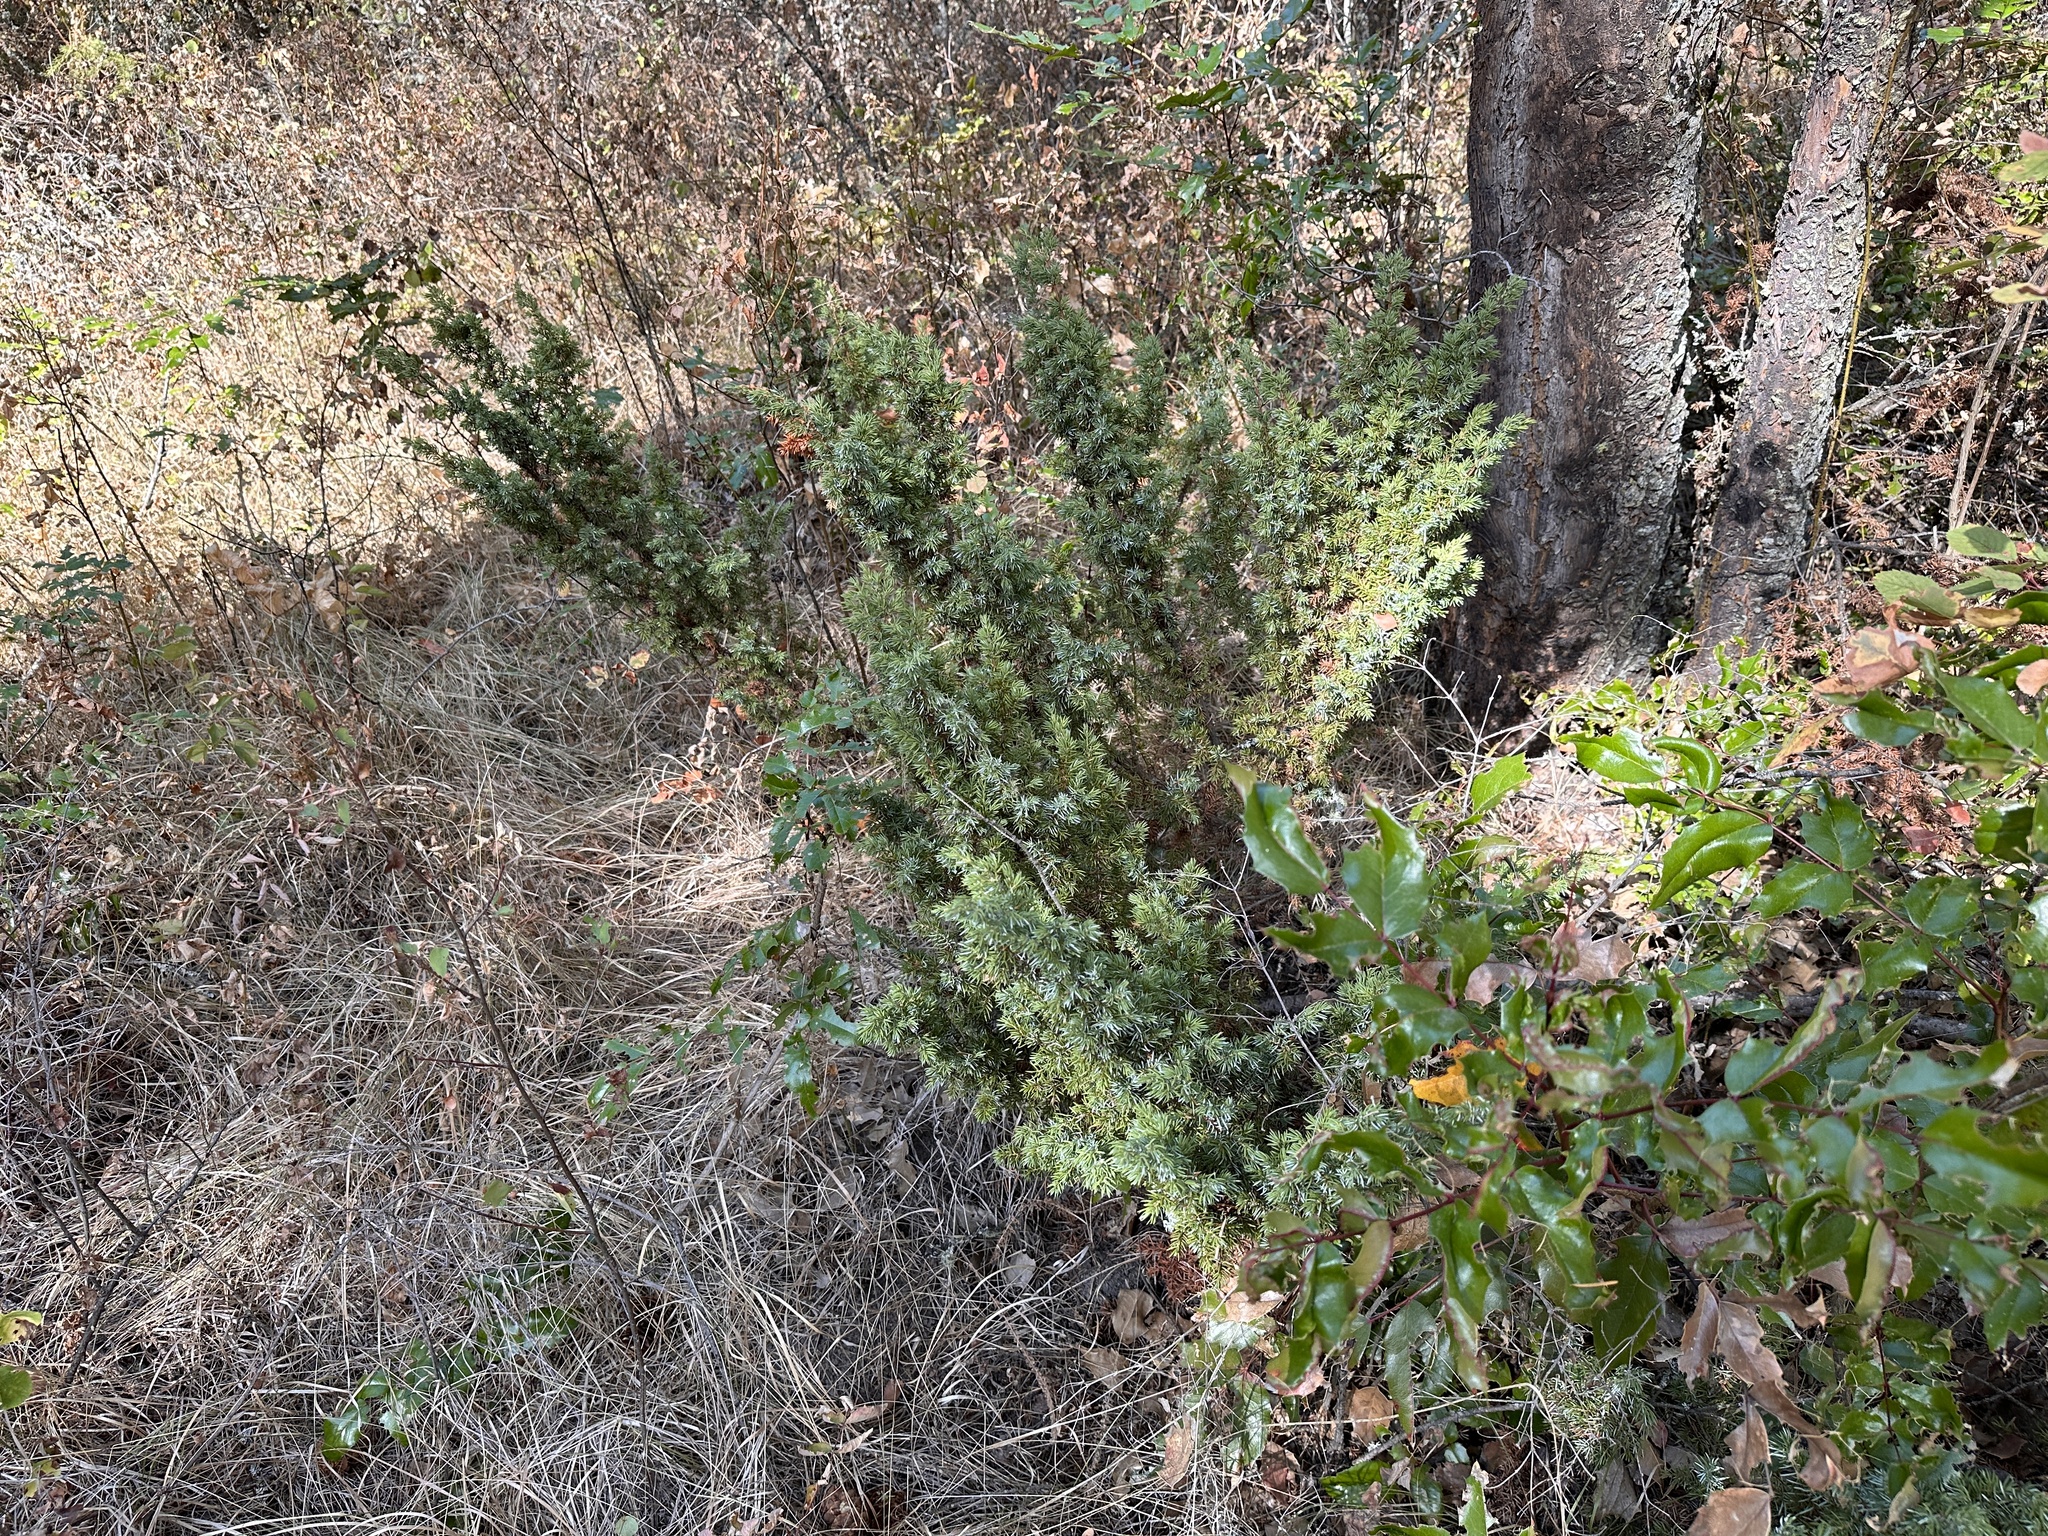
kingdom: Plantae
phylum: Tracheophyta
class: Pinopsida
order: Pinales
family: Cupressaceae
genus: Juniperus
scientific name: Juniperus communis
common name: Common juniper
